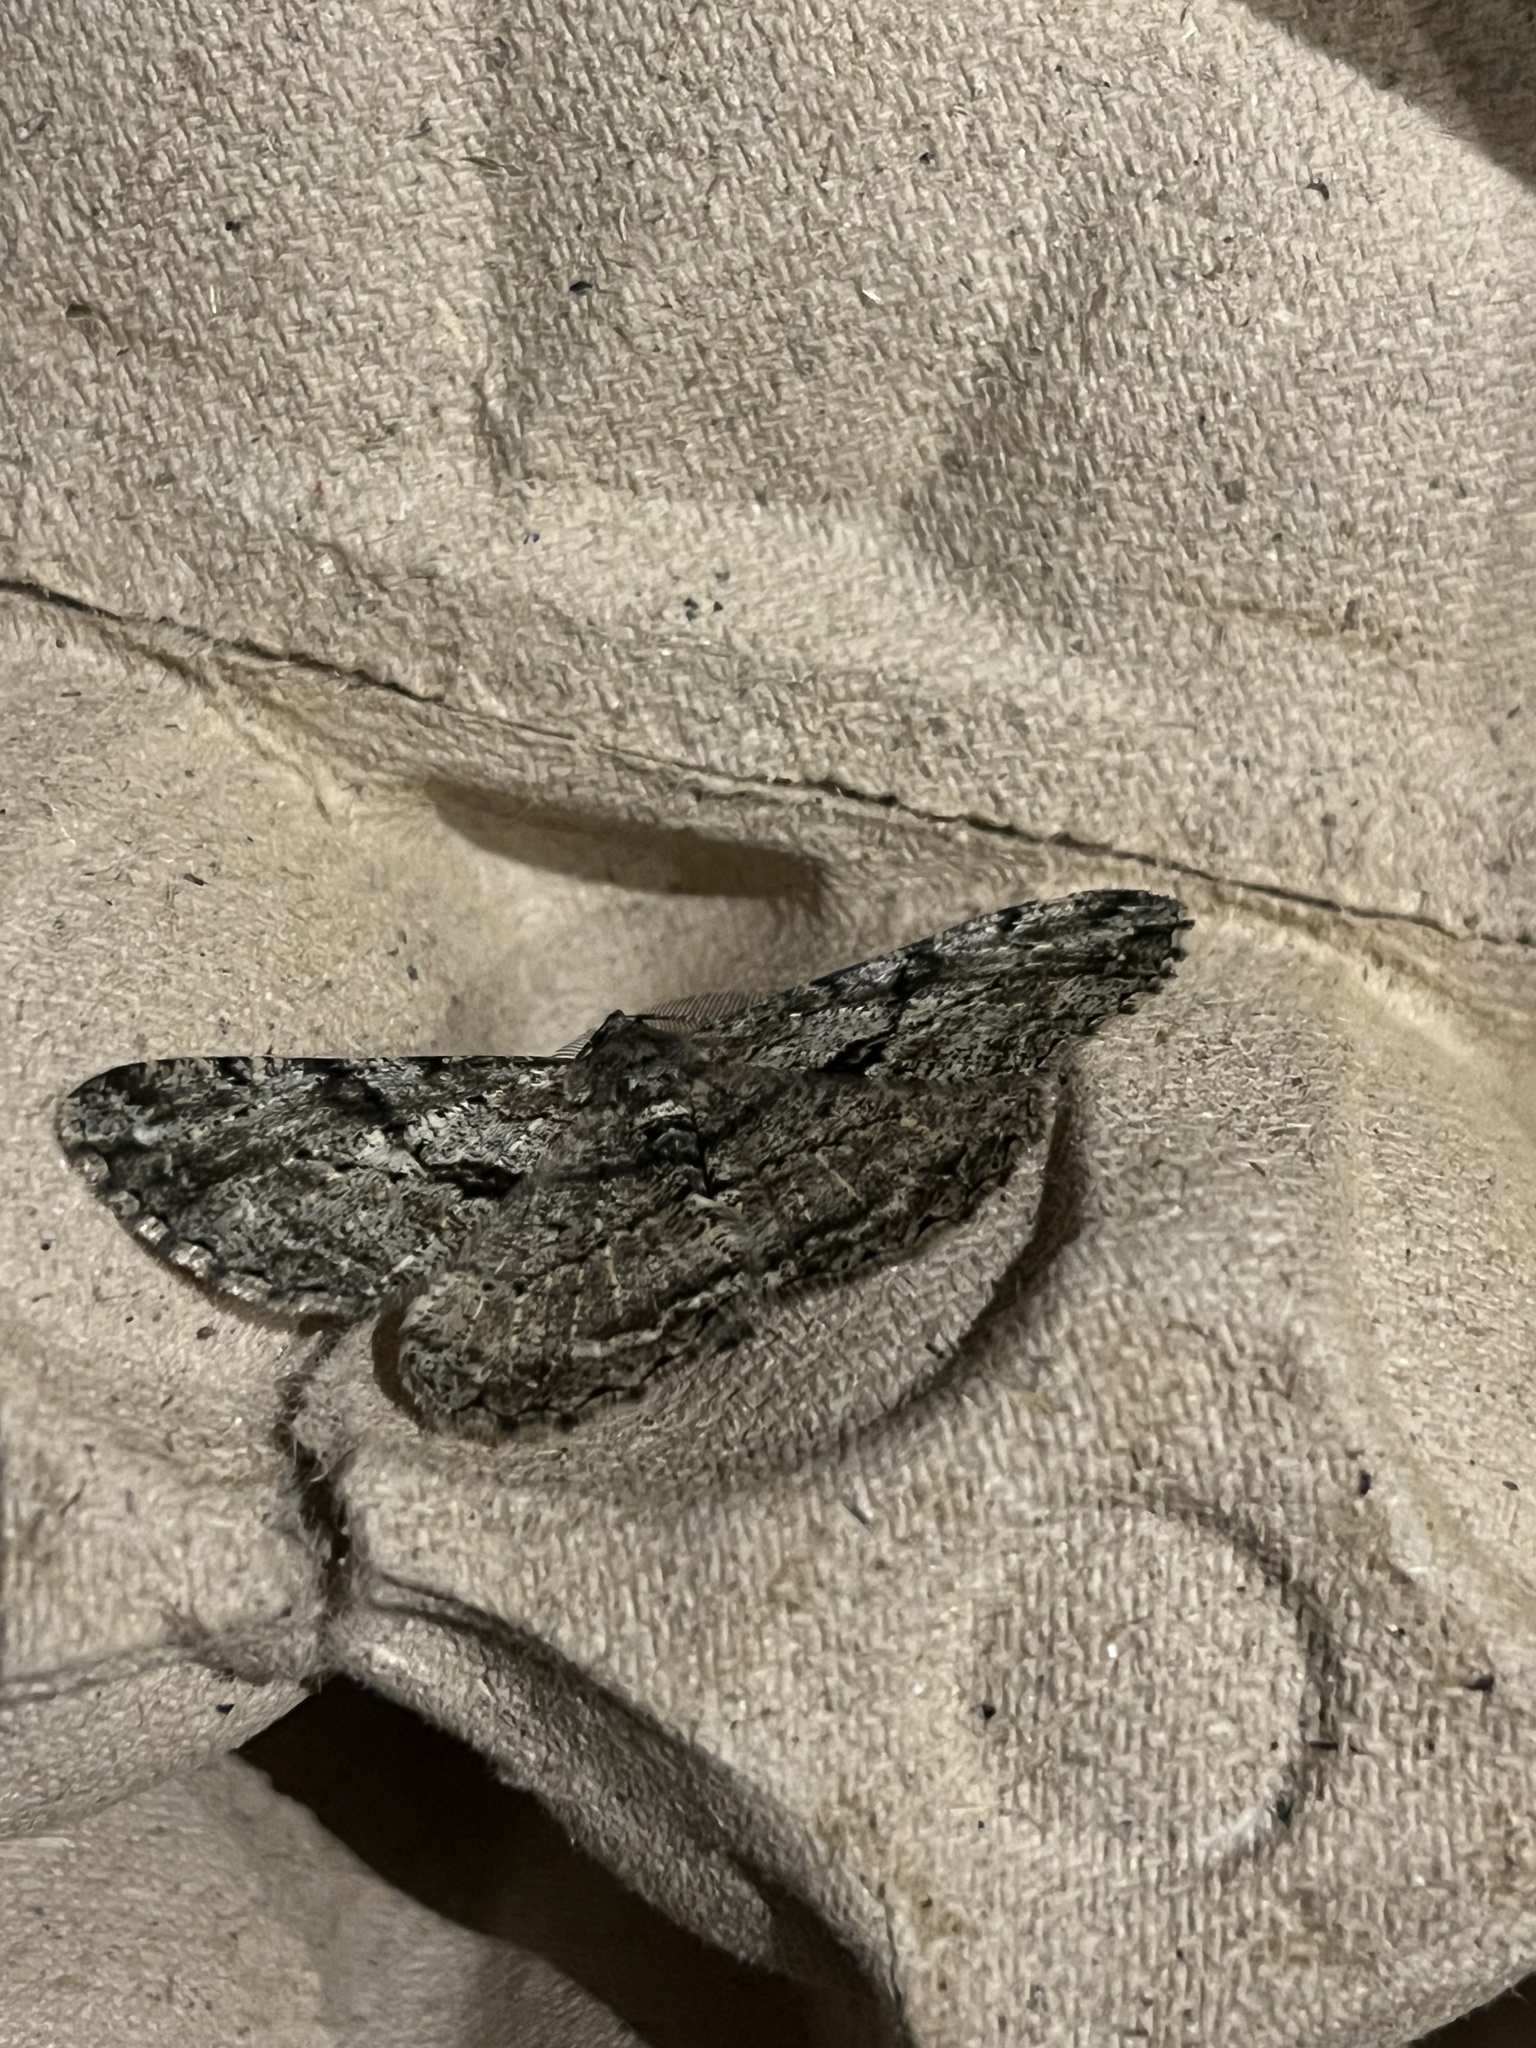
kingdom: Animalia
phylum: Arthropoda
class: Insecta
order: Lepidoptera
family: Geometridae
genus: Peribatodes
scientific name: Peribatodes rhomboidaria
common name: Willow beauty
